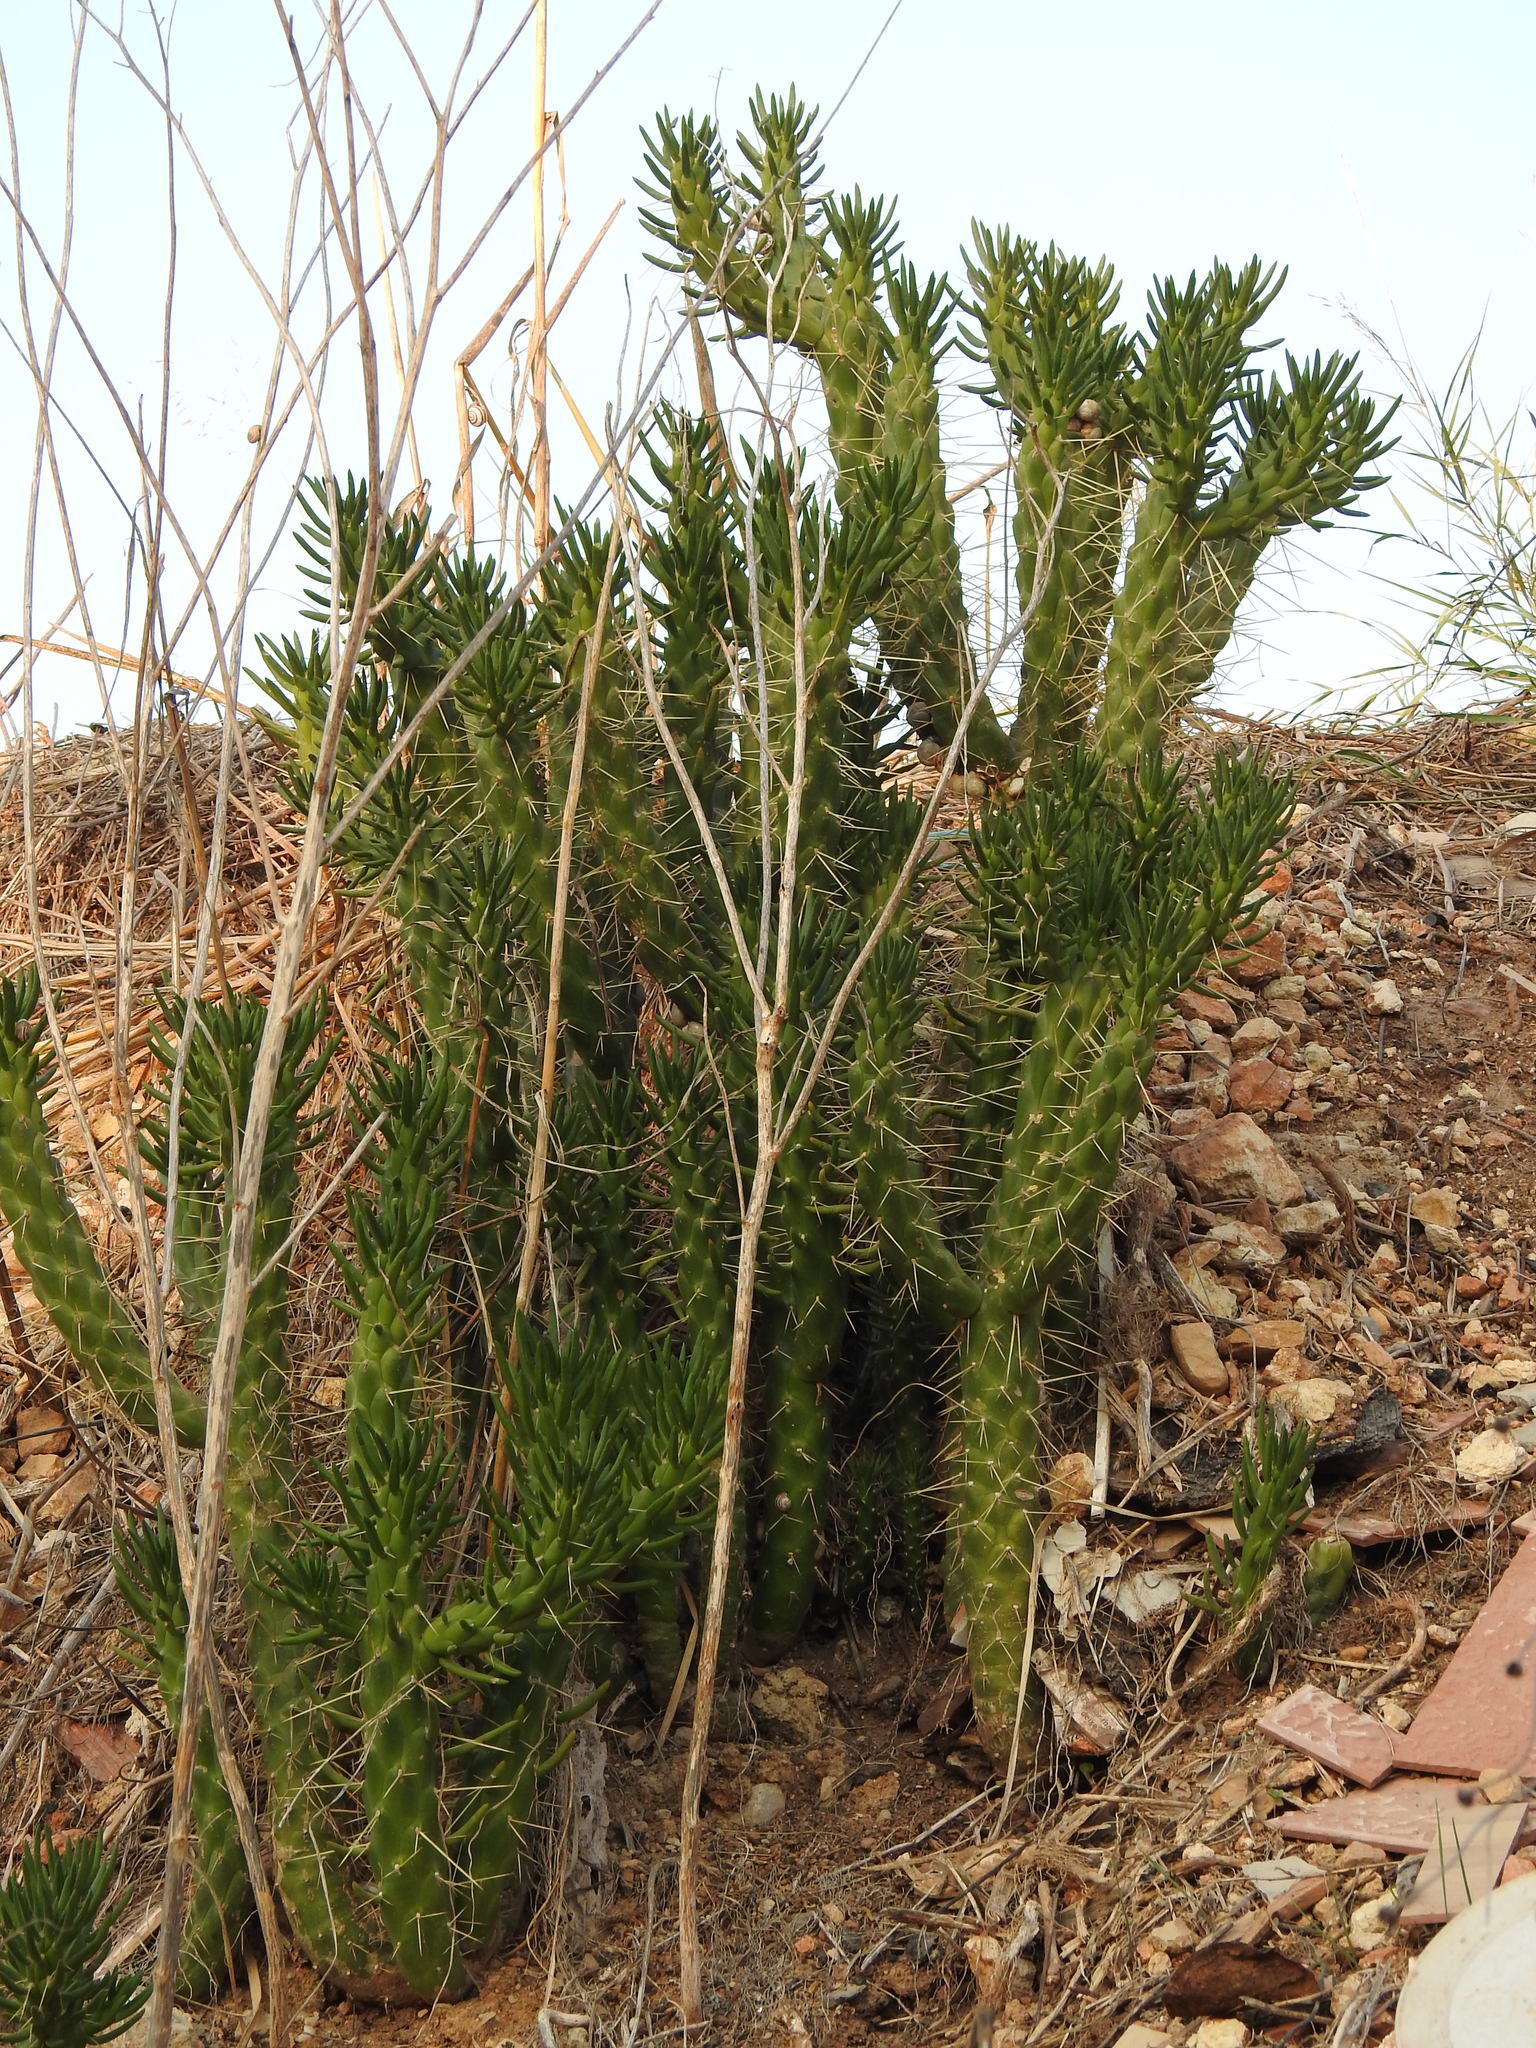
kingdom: Plantae
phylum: Tracheophyta
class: Magnoliopsida
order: Caryophyllales
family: Cactaceae
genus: Austrocylindropuntia
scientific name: Austrocylindropuntia subulata
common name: Eve's needle cactus
